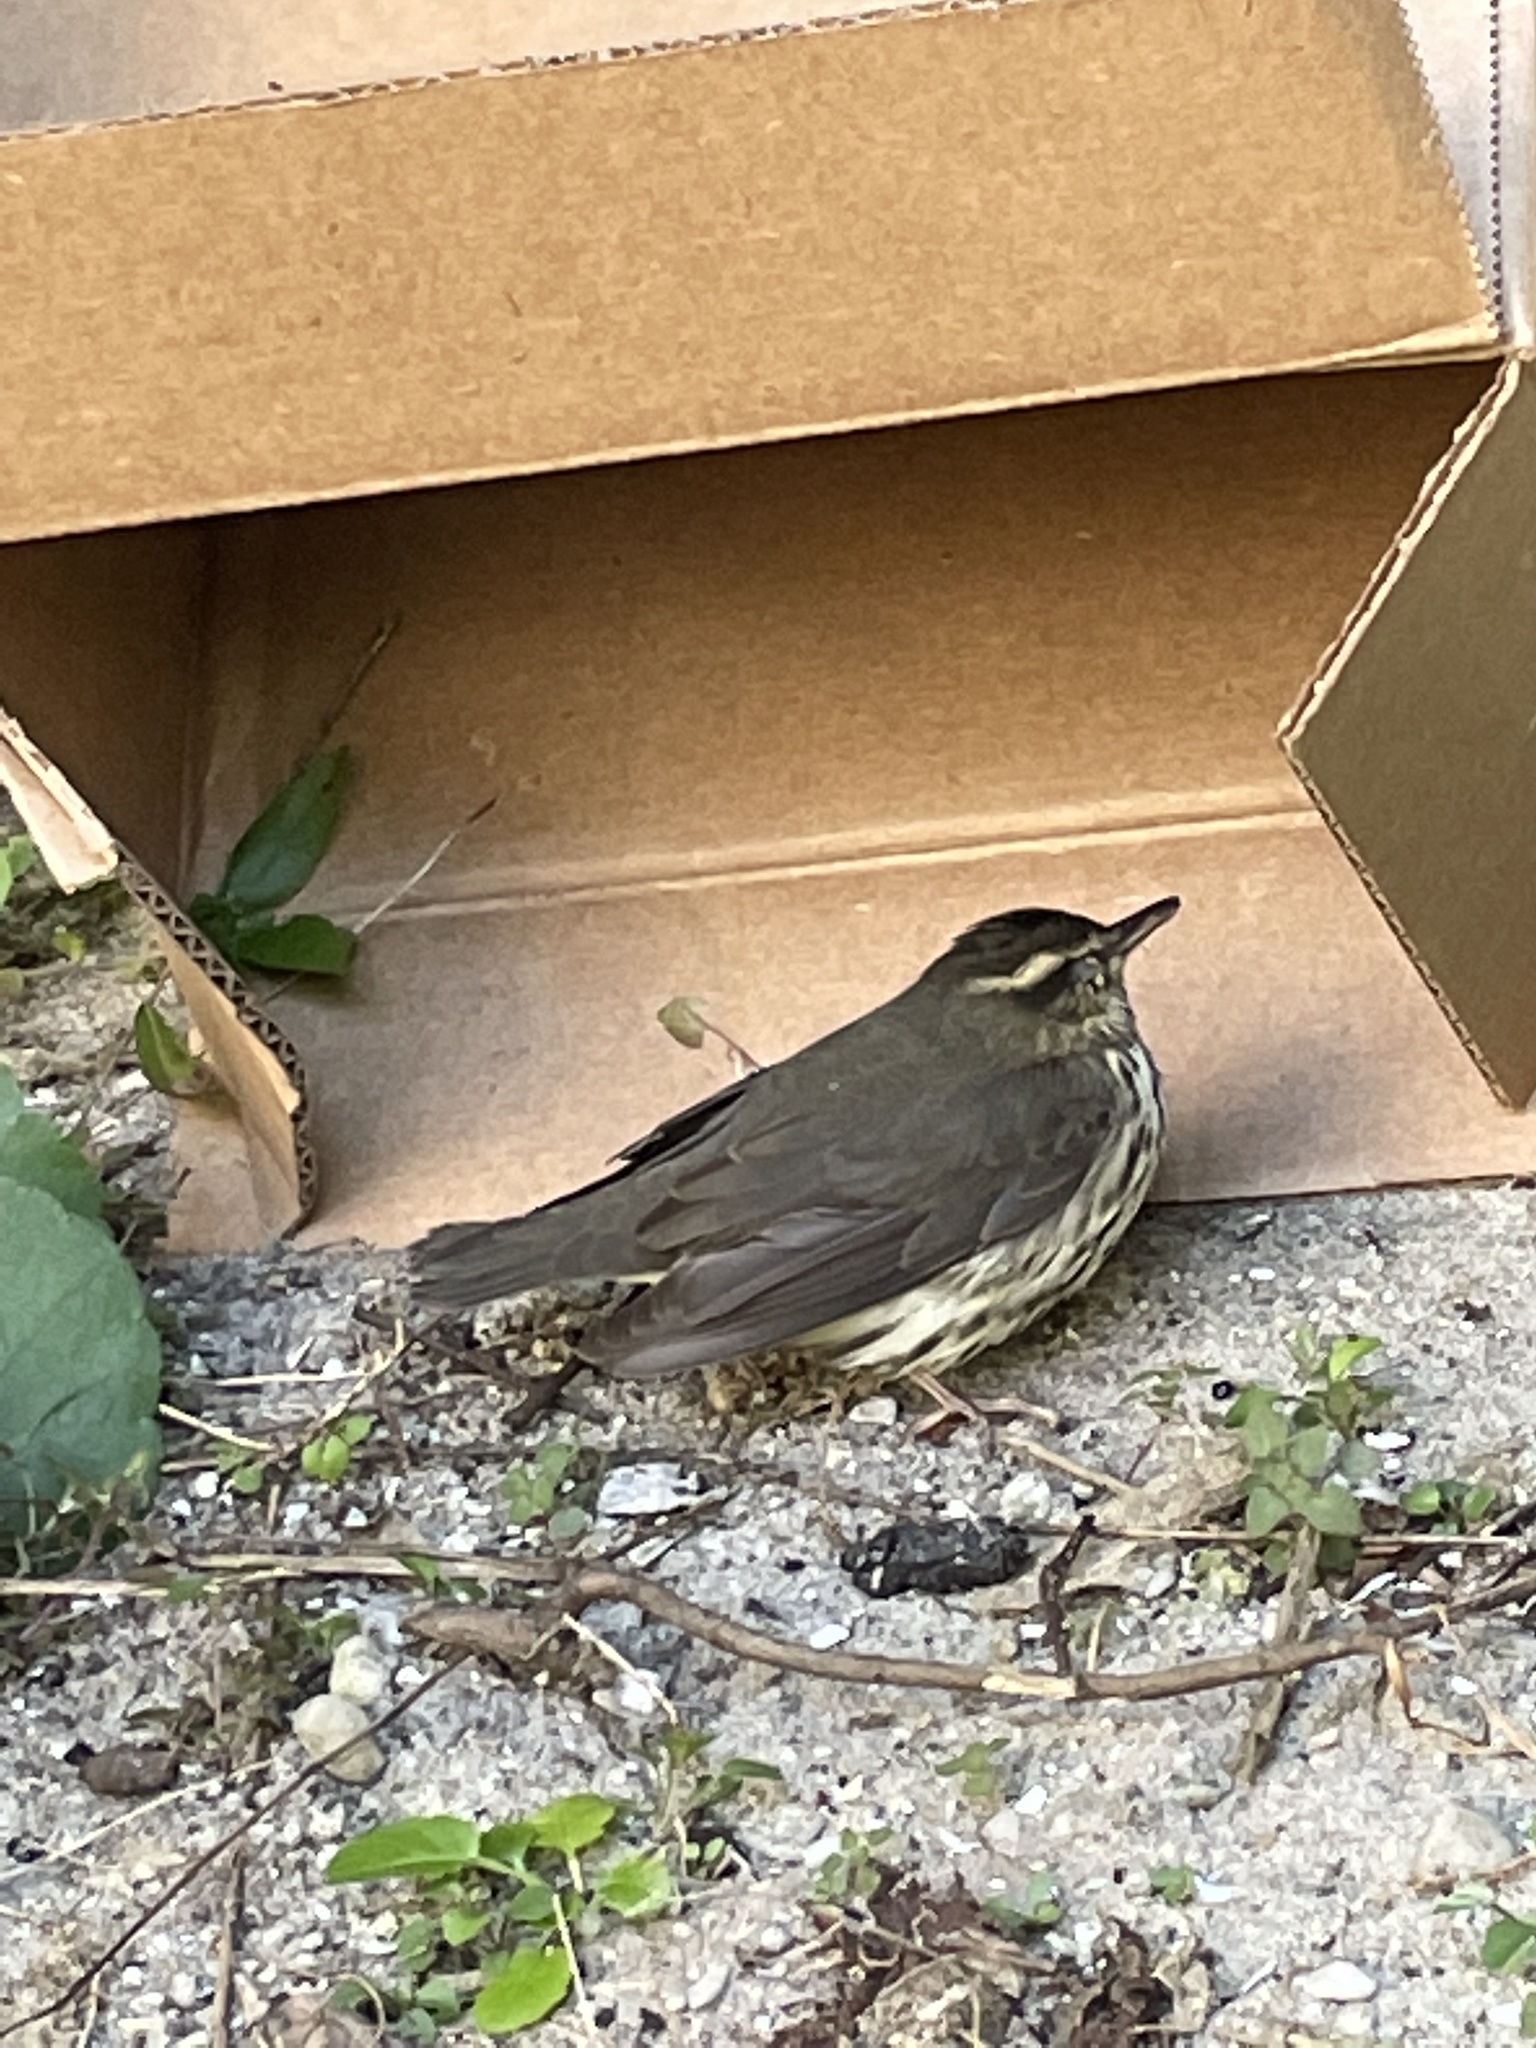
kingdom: Animalia
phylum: Chordata
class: Aves
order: Passeriformes
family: Parulidae
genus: Parkesia
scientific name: Parkesia noveboracensis
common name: Northern waterthrush
